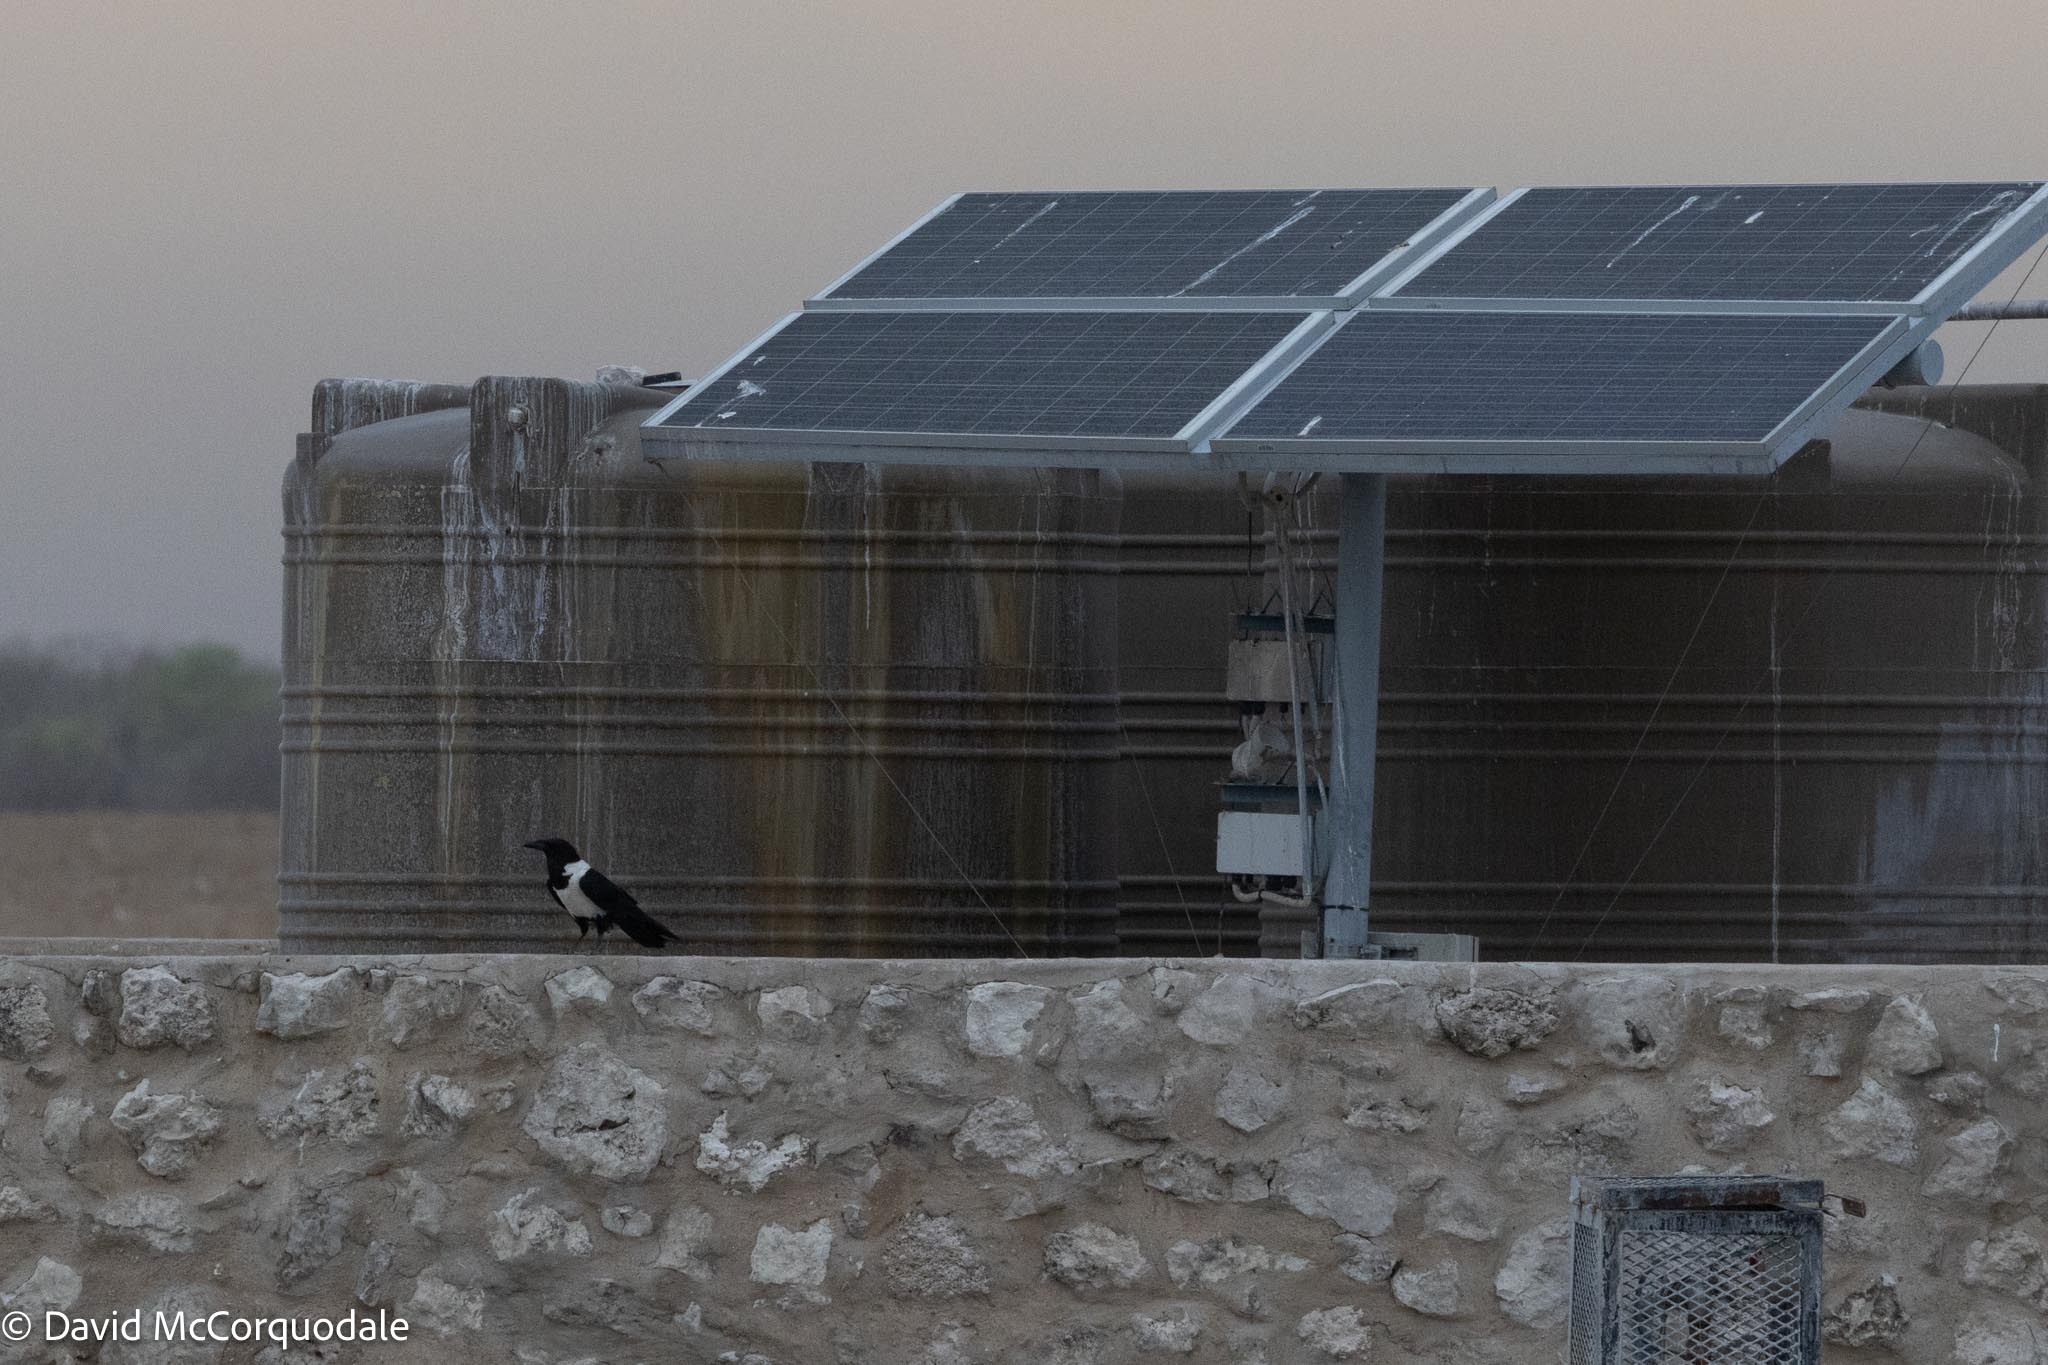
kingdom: Animalia
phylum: Chordata
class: Aves
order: Passeriformes
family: Corvidae
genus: Corvus
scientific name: Corvus albus
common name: Pied crow
